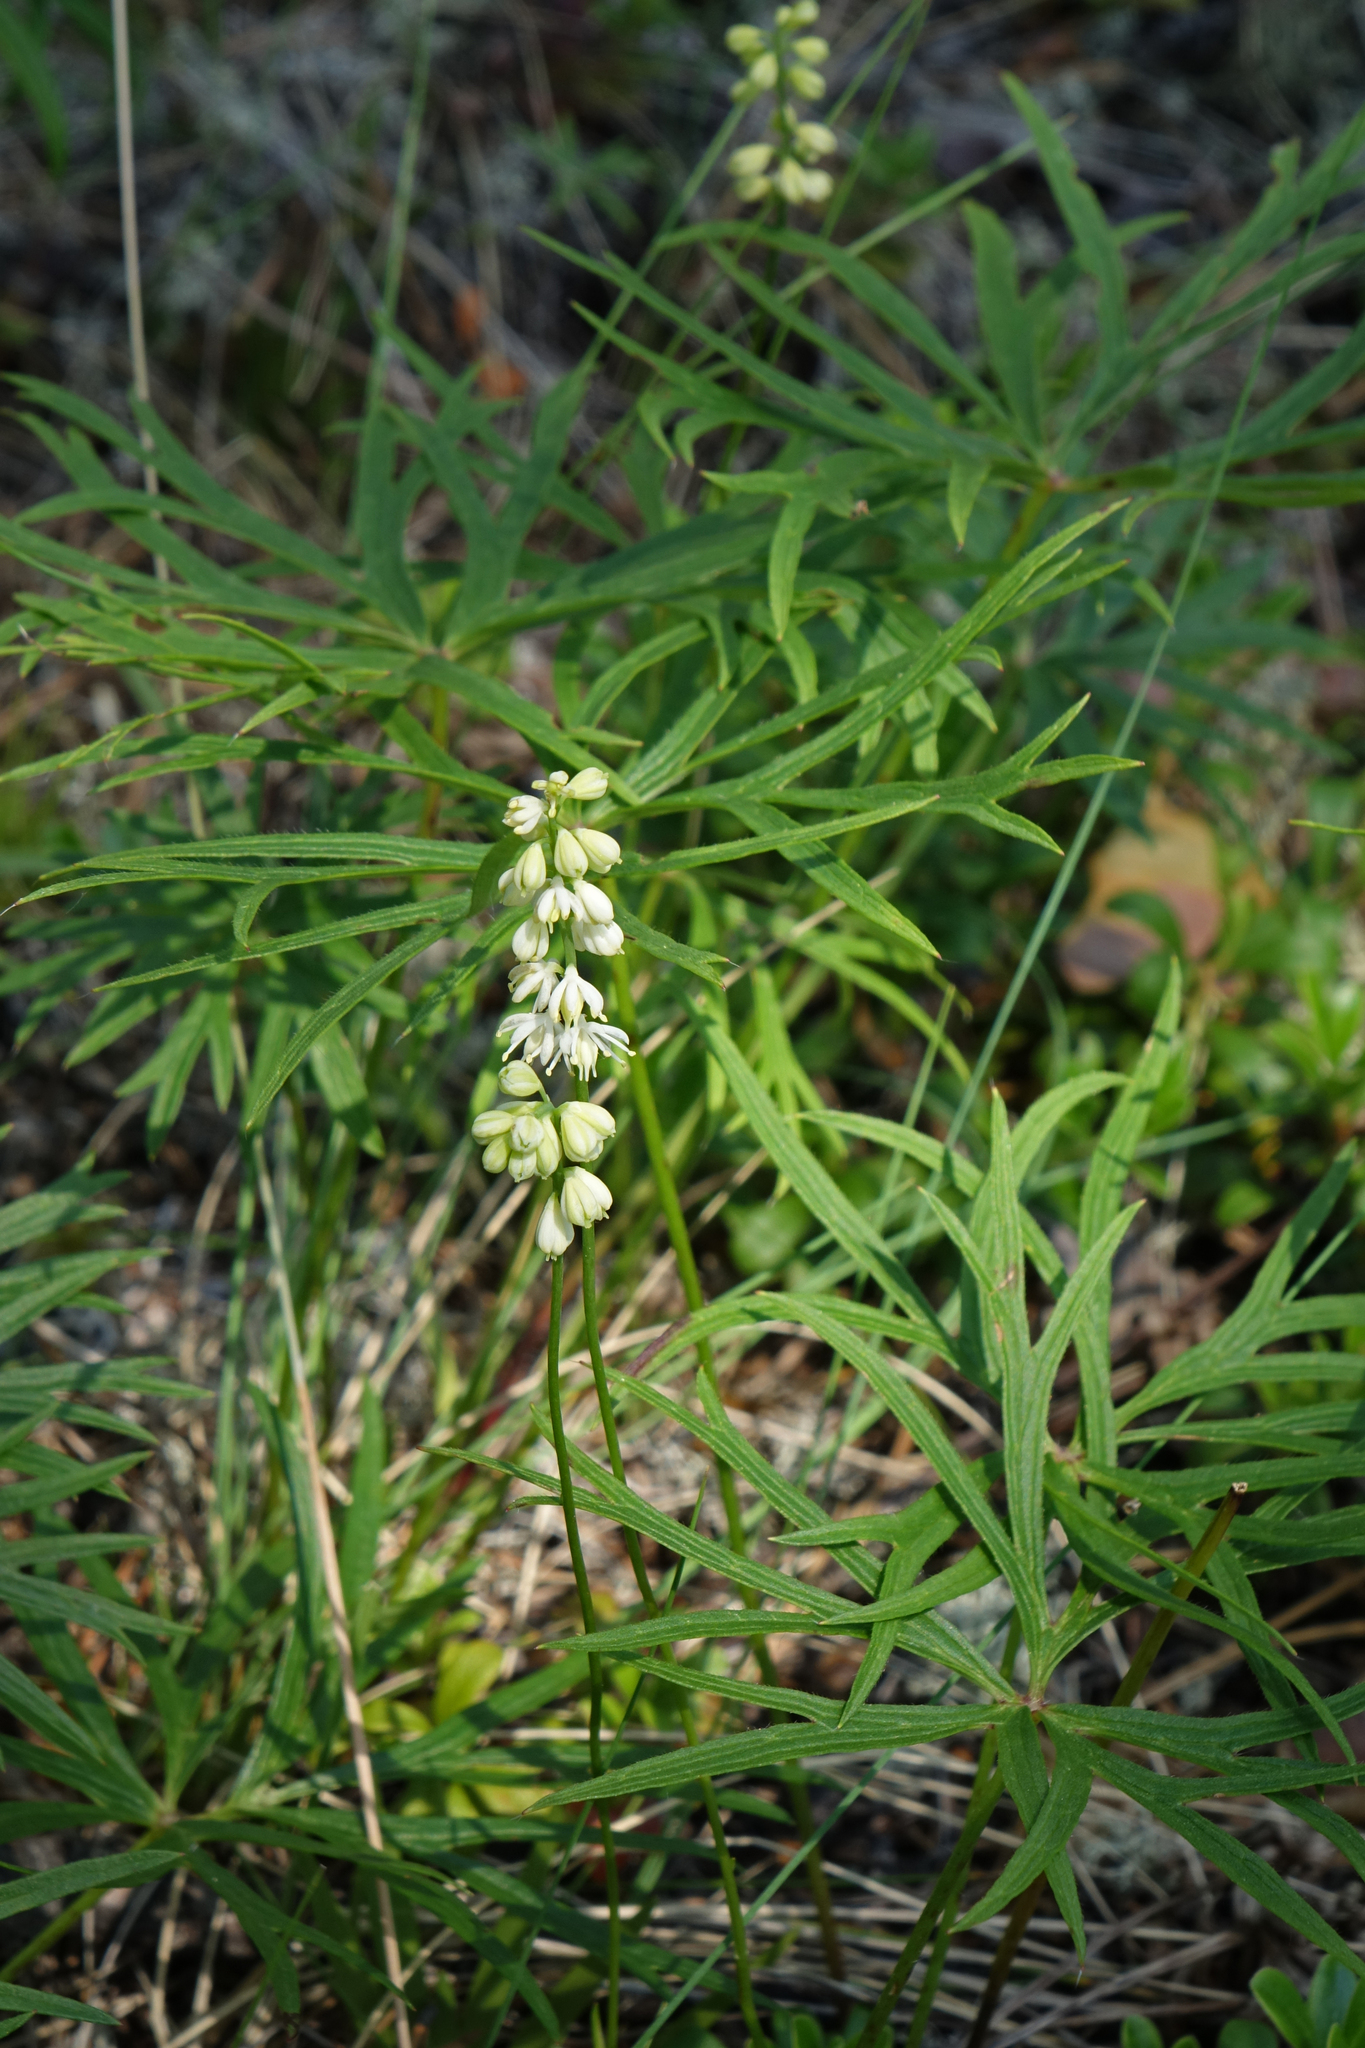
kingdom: Plantae
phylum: Tracheophyta
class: Liliopsida
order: Alismatales
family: Tofieldiaceae
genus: Tofieldia
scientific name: Tofieldia cernua
